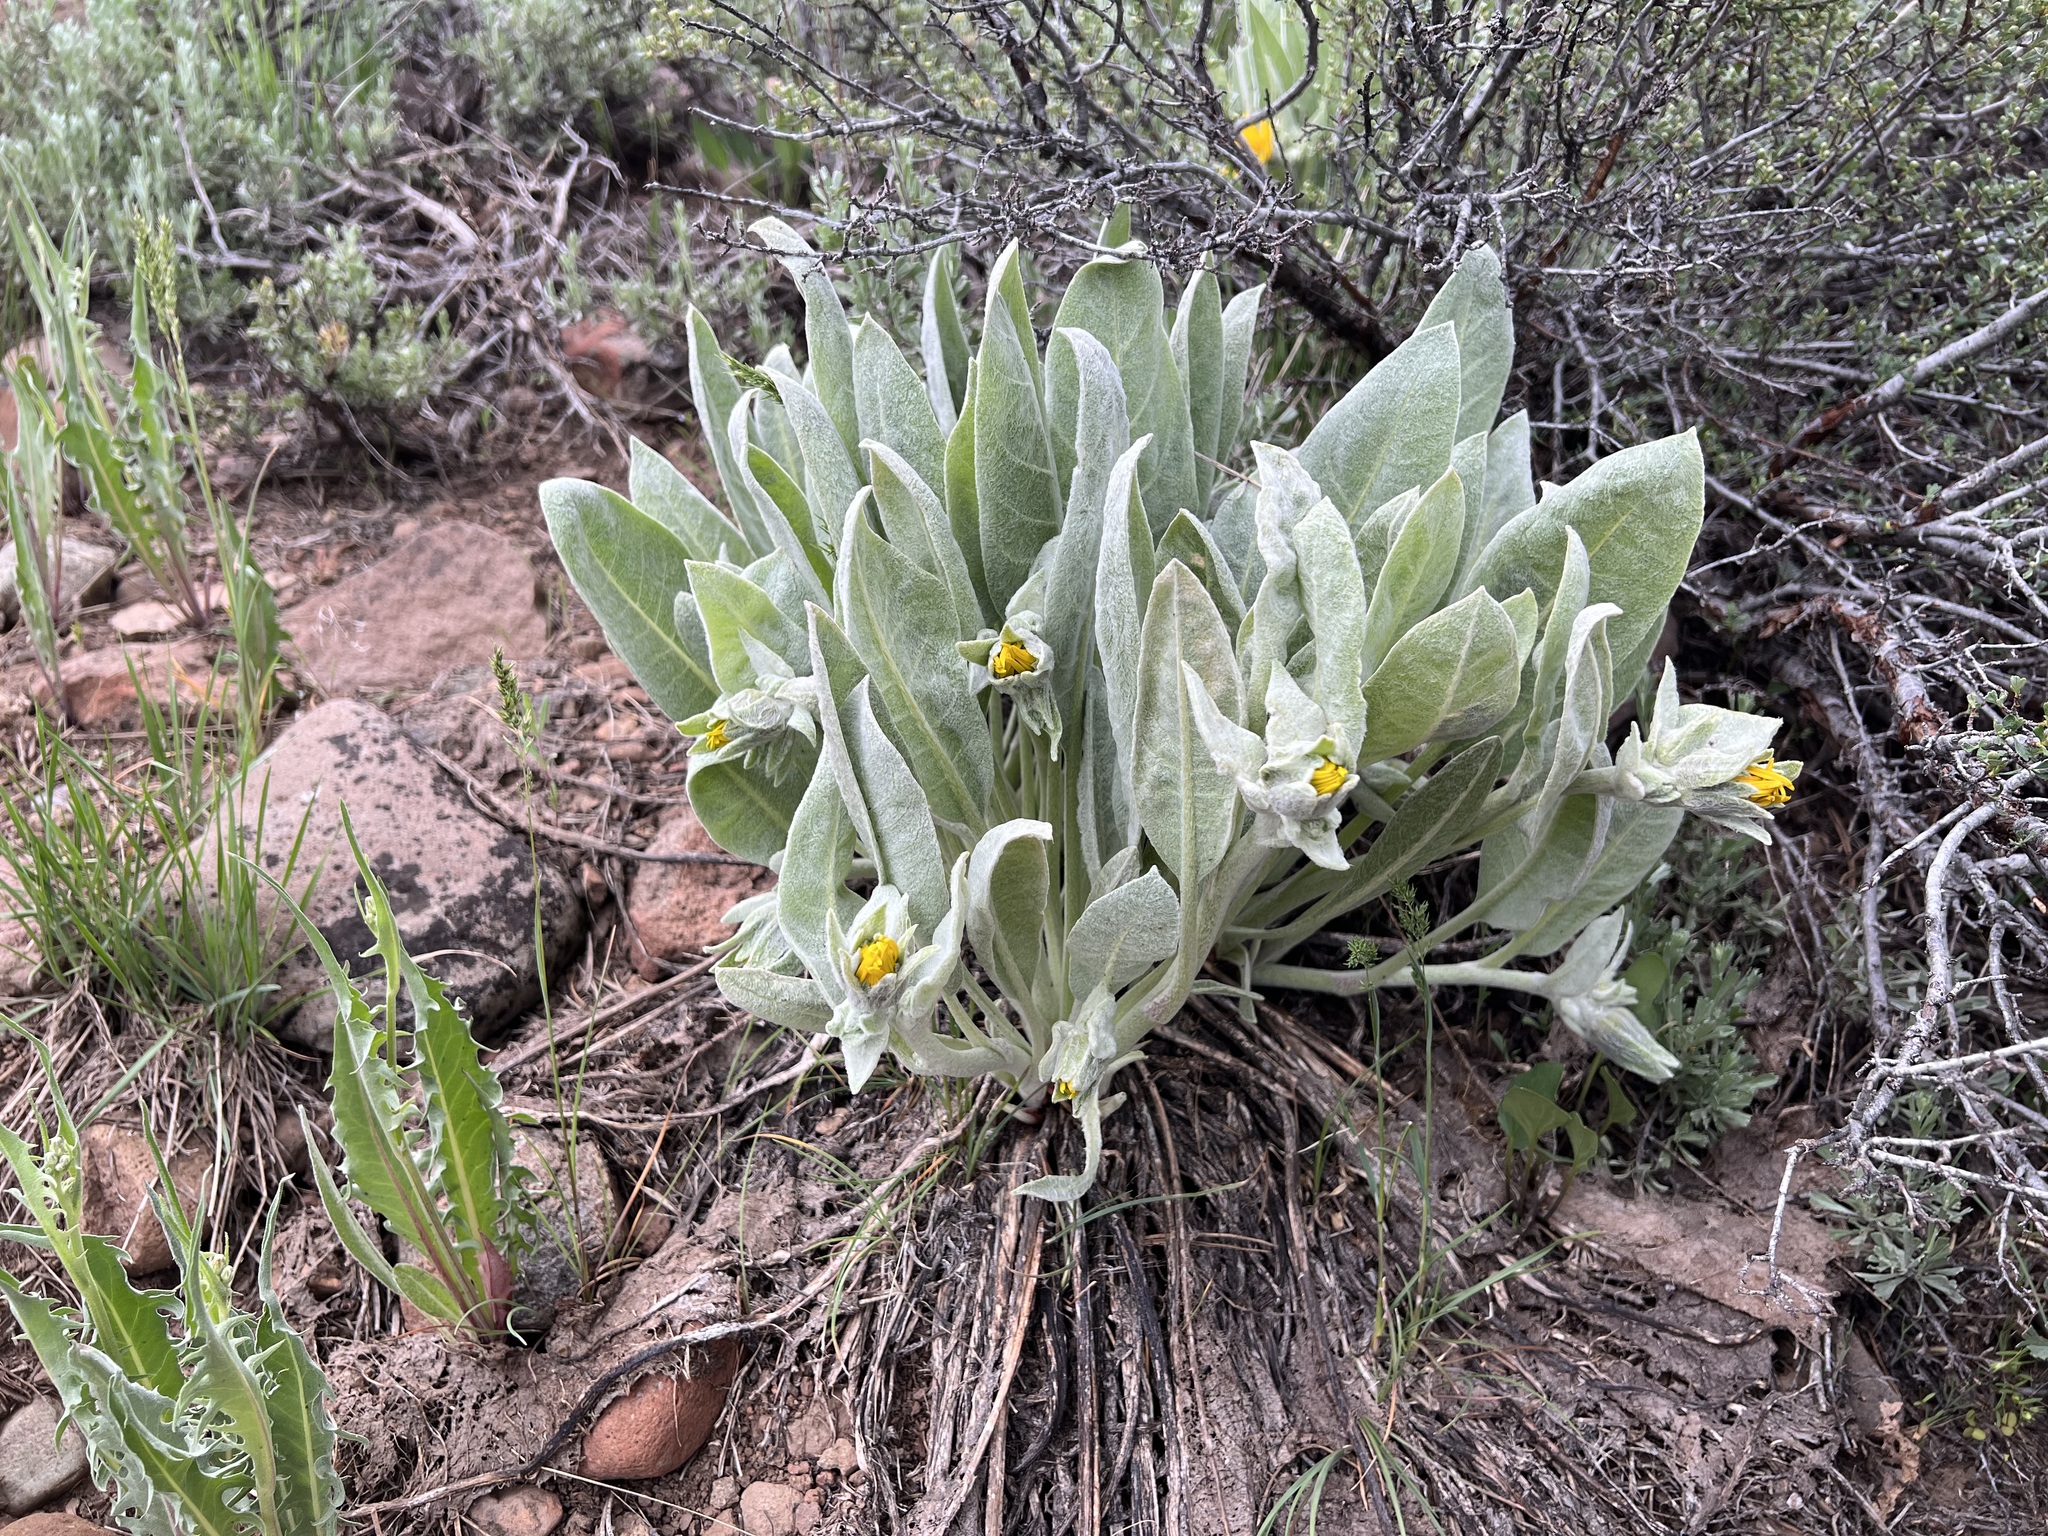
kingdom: Plantae
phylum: Tracheophyta
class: Magnoliopsida
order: Asterales
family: Asteraceae
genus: Wyethia
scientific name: Wyethia mollis
